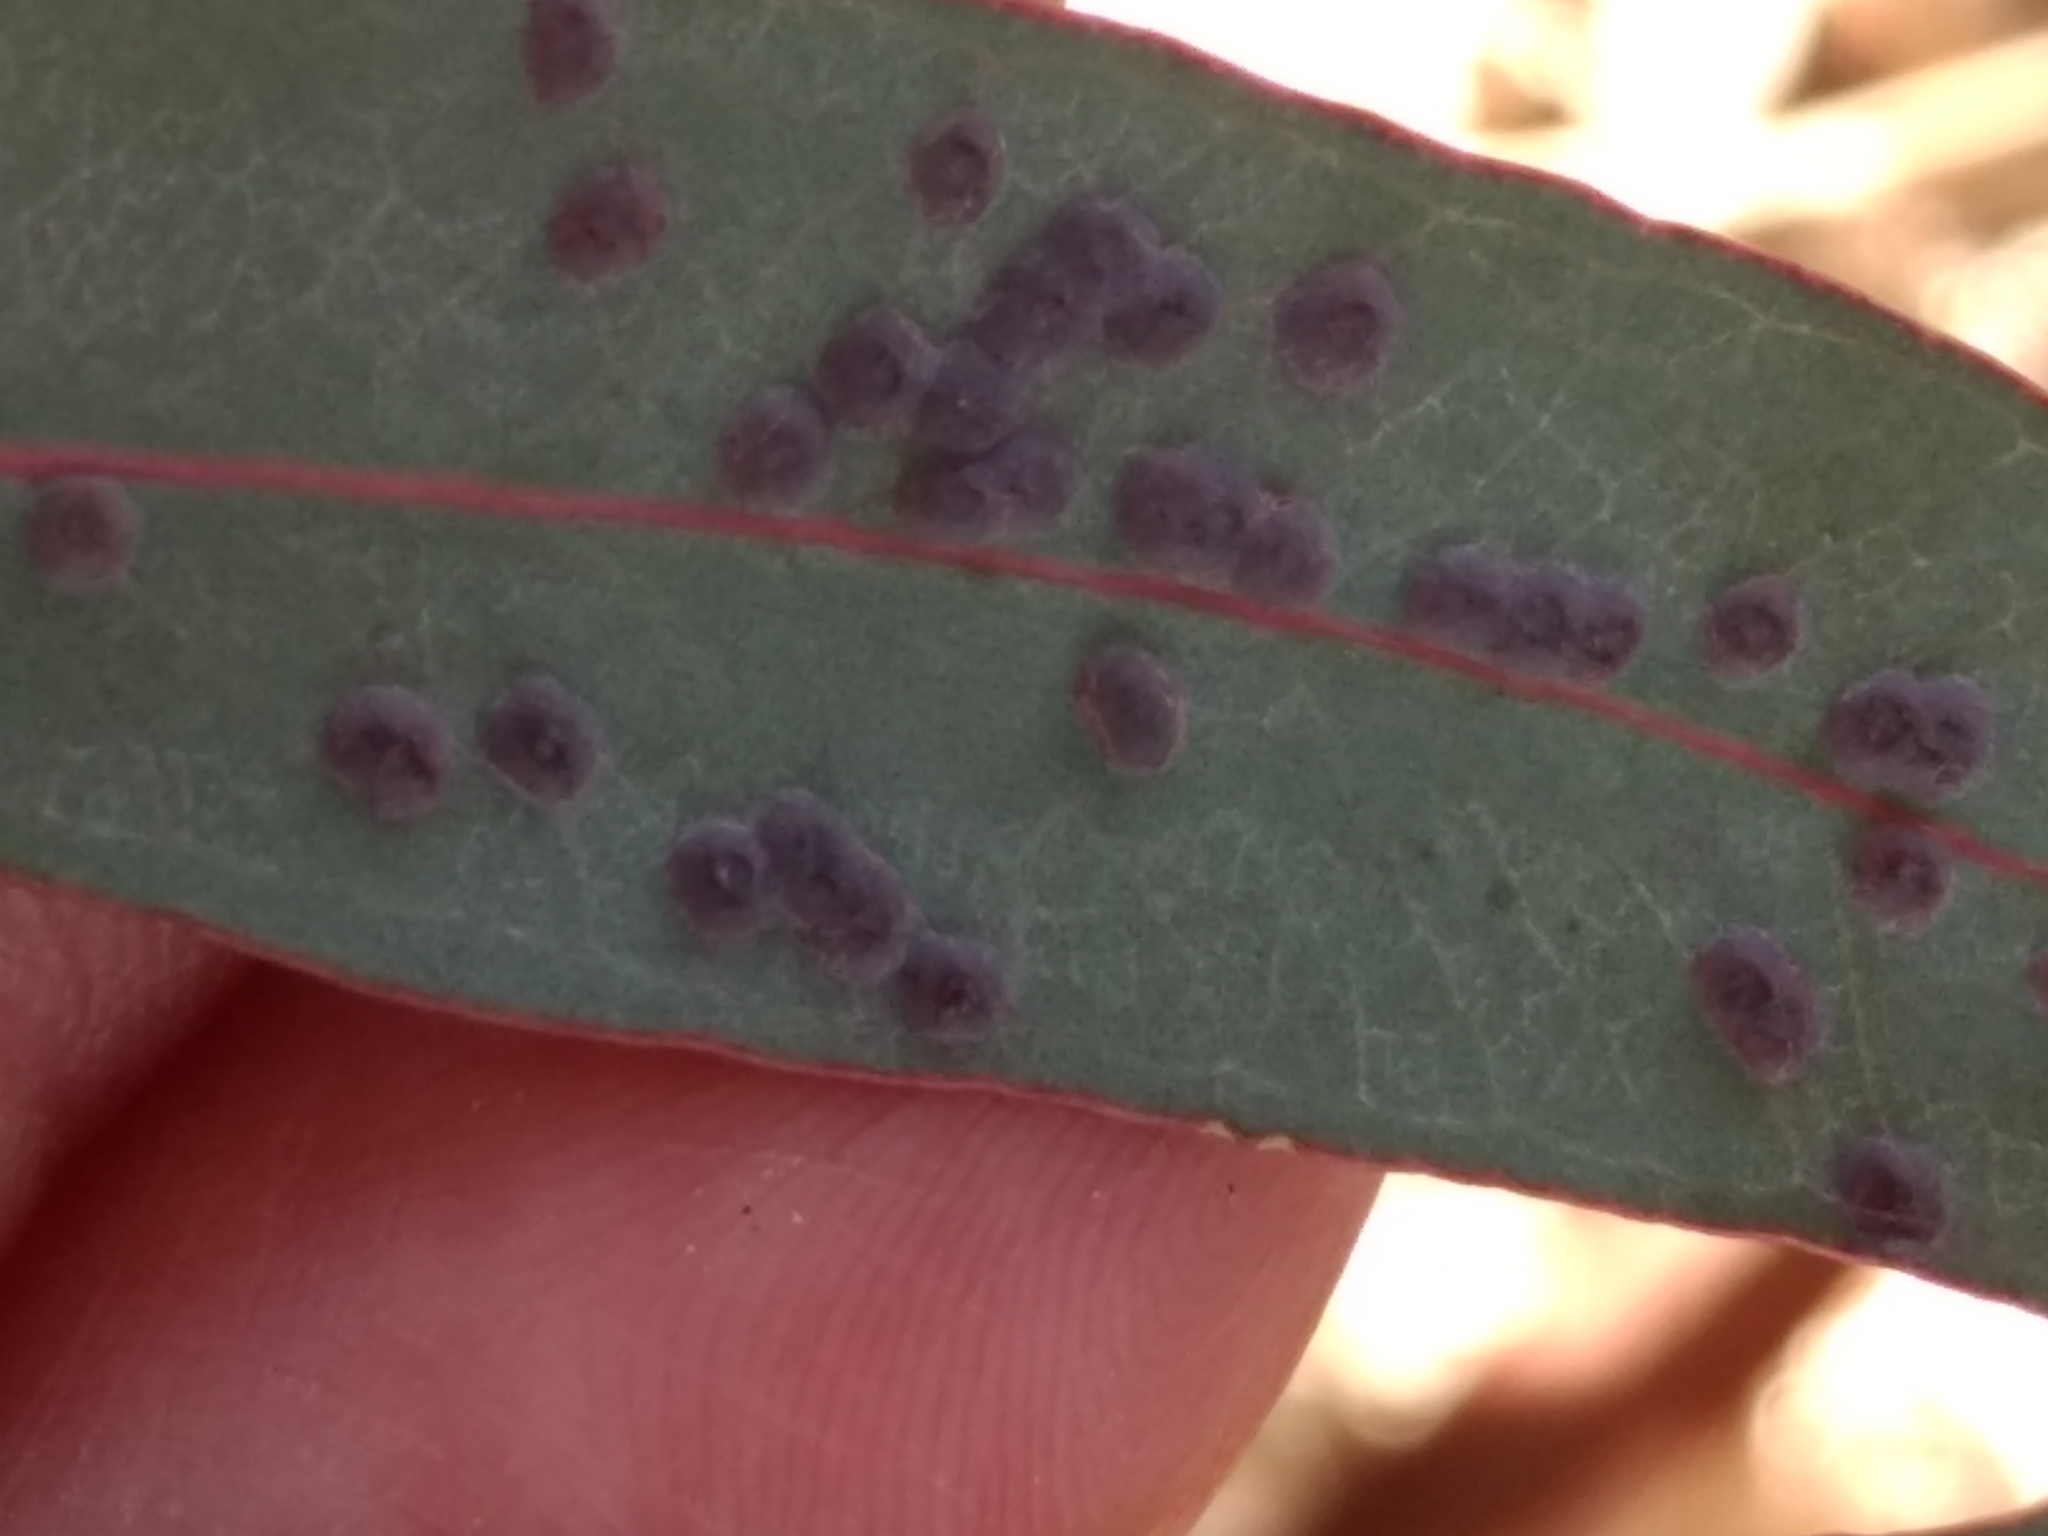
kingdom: Animalia
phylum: Arthropoda
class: Insecta
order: Hymenoptera
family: Eulophidae
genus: Ophelimus
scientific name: Ophelimus maskelli
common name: Gall wasp
